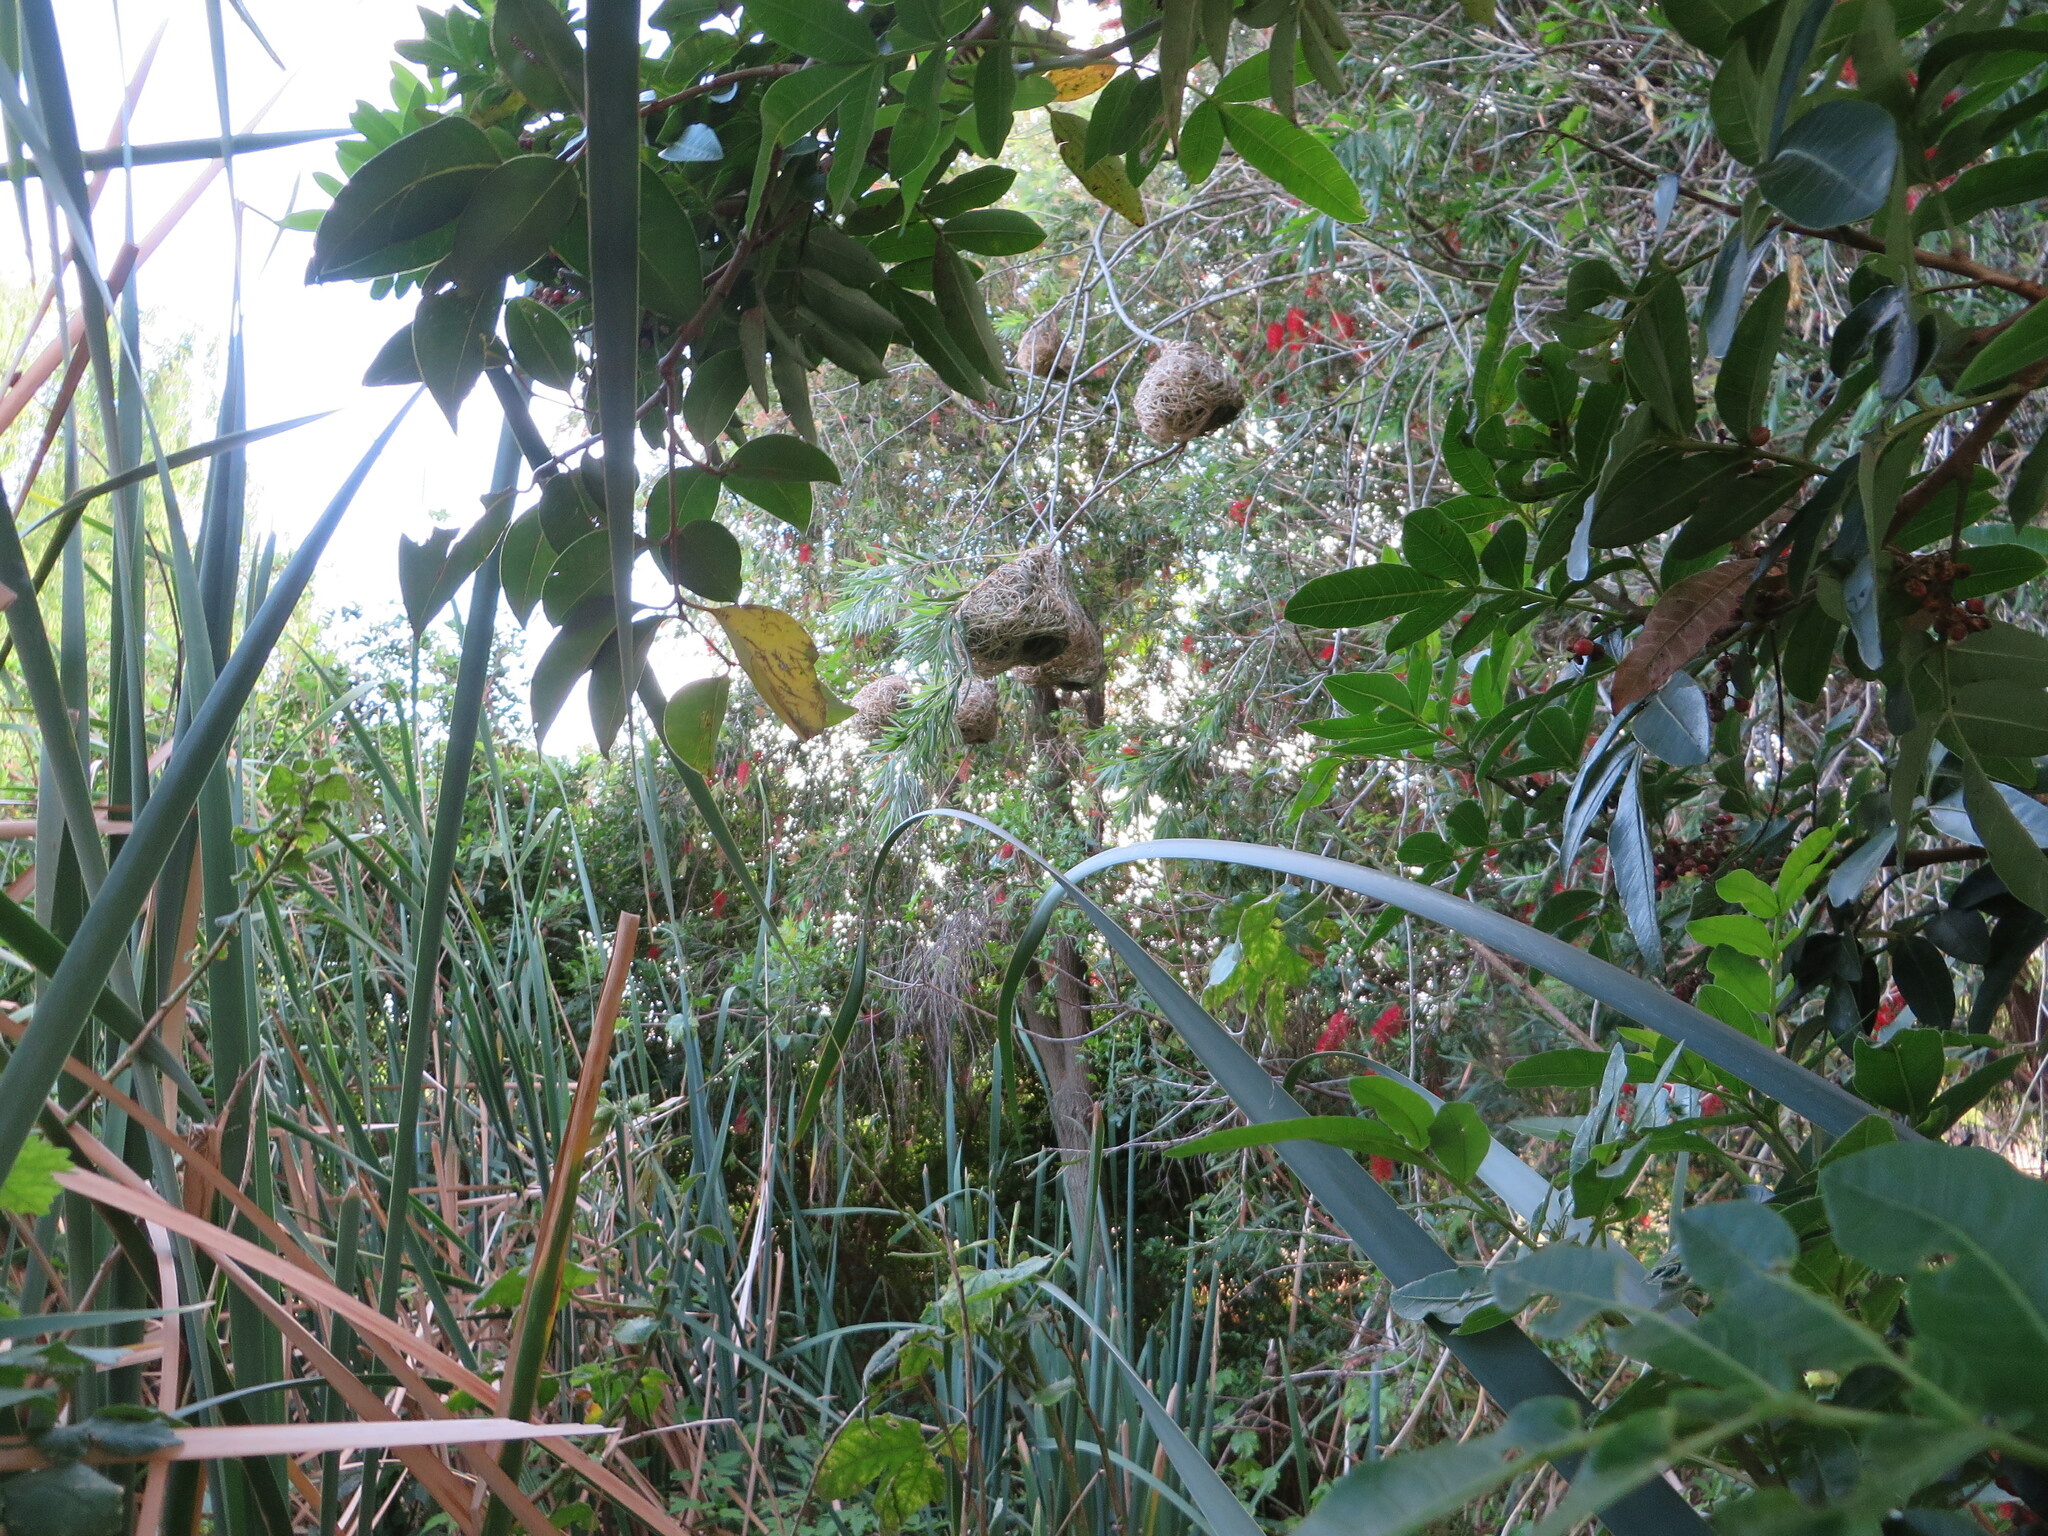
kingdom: Animalia
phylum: Chordata
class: Aves
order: Passeriformes
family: Ploceidae
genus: Ploceus
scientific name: Ploceus capensis
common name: Cape weaver
